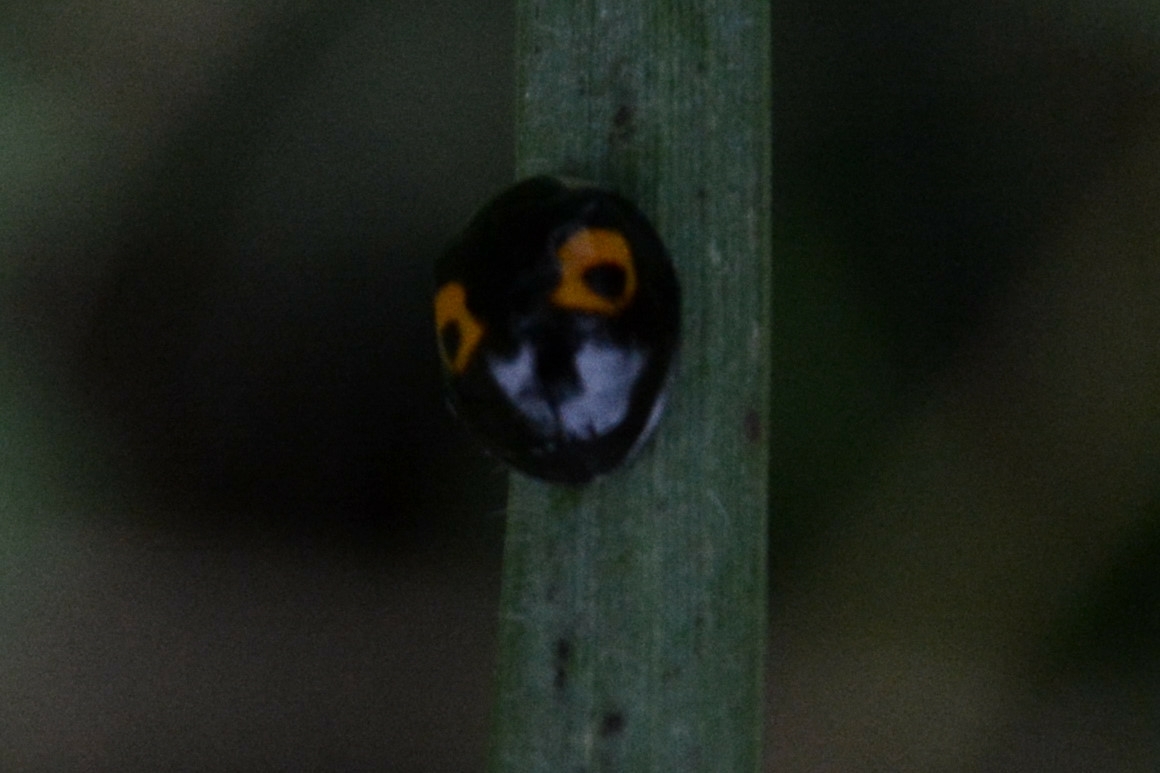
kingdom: Animalia
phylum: Arthropoda
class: Insecta
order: Coleoptera
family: Coccinellidae
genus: Harmonia
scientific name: Harmonia axyridis
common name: Harlequin ladybird
